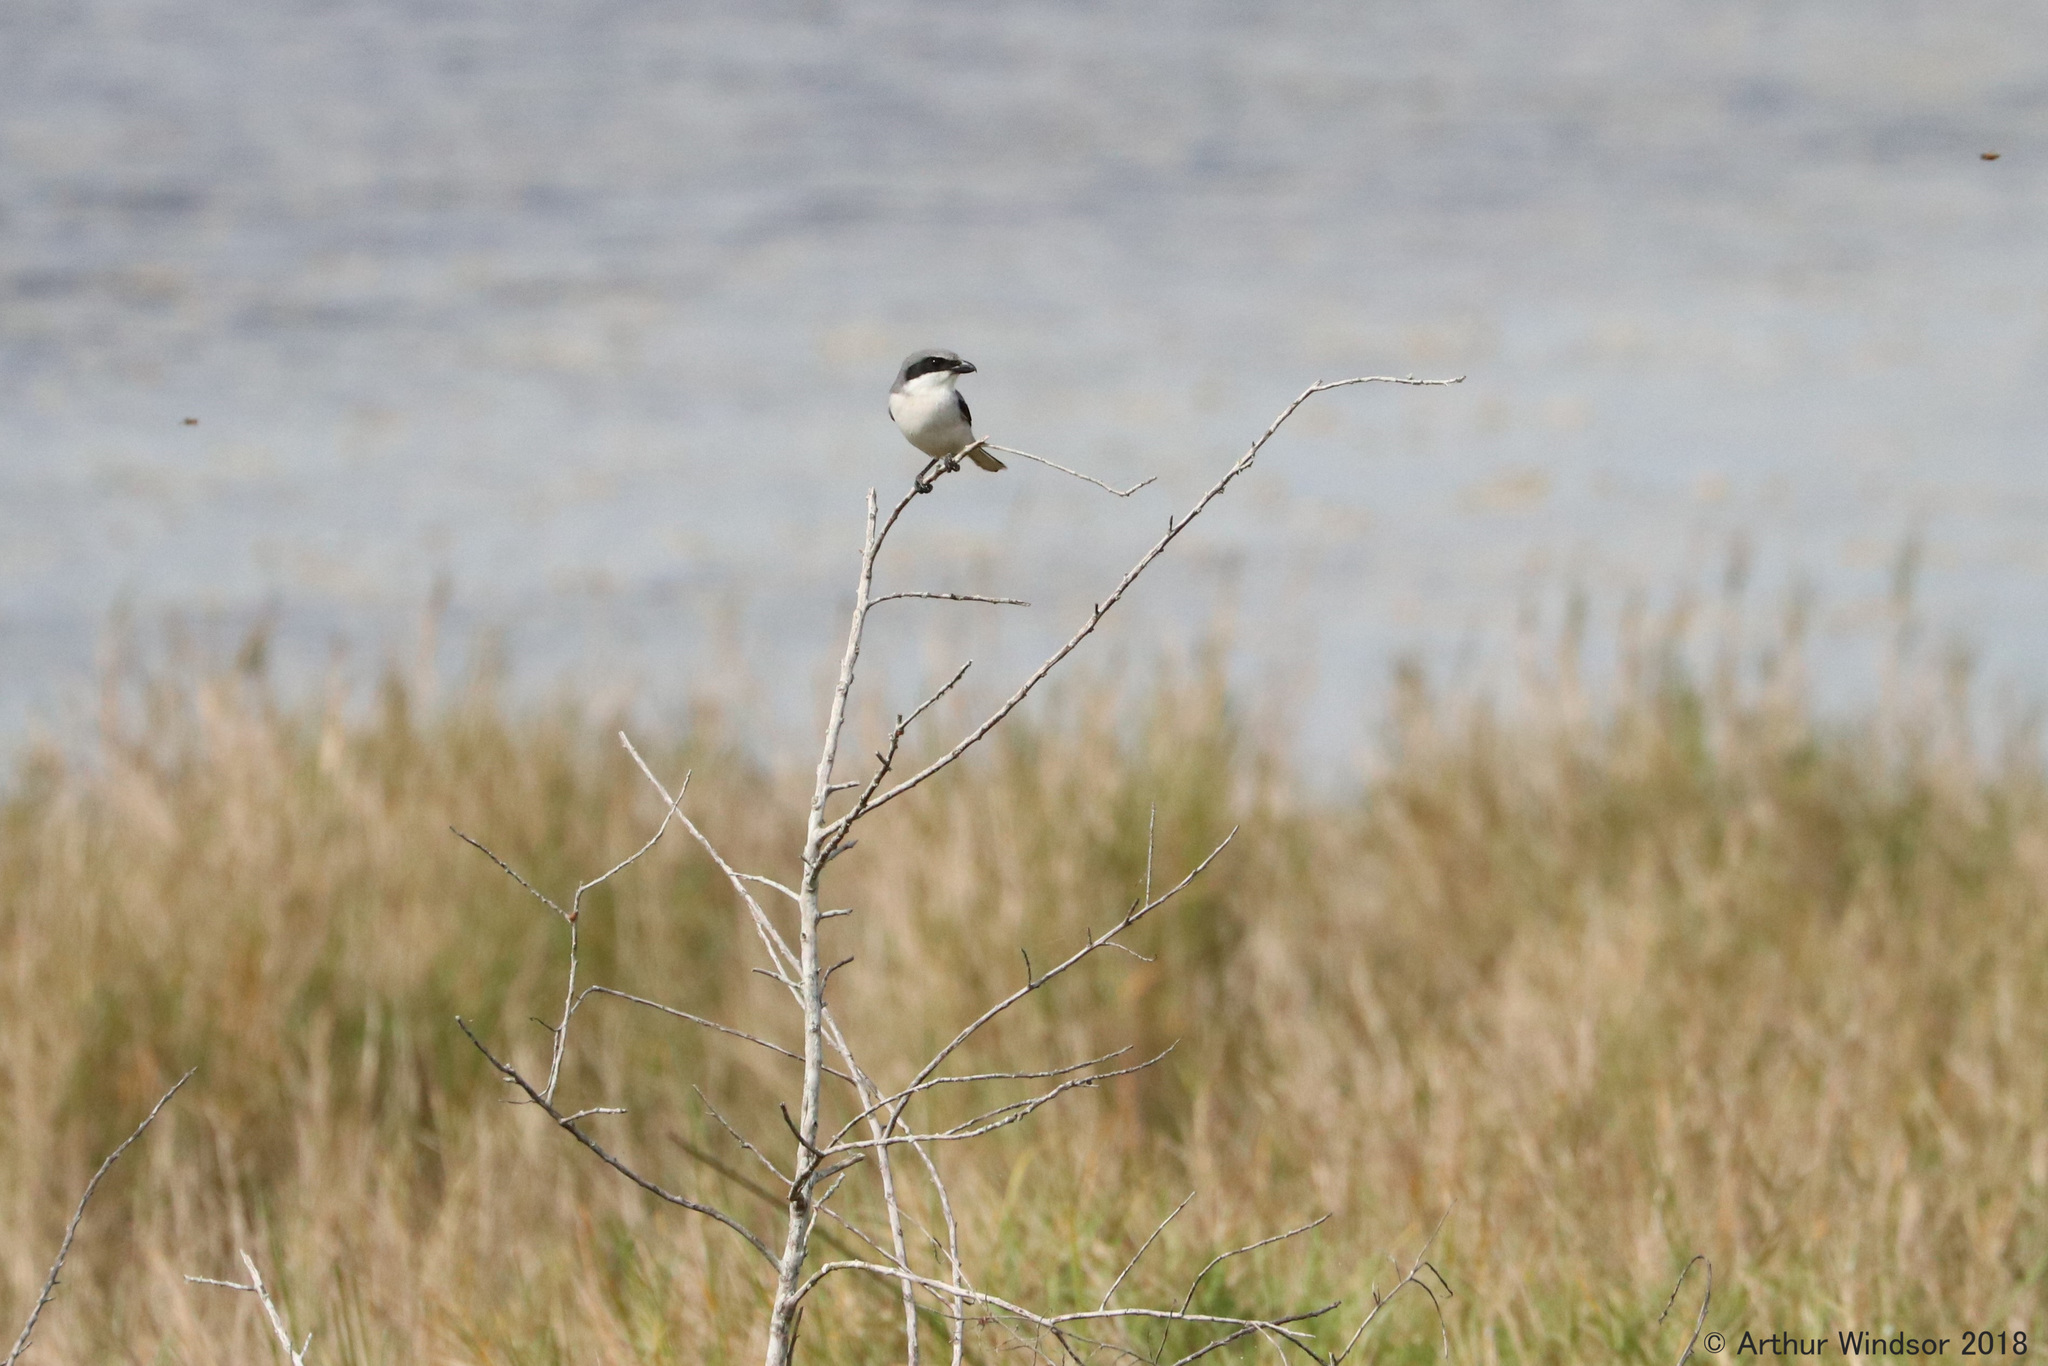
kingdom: Animalia
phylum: Chordata
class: Aves
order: Passeriformes
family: Laniidae
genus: Lanius
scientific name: Lanius ludovicianus
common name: Loggerhead shrike
